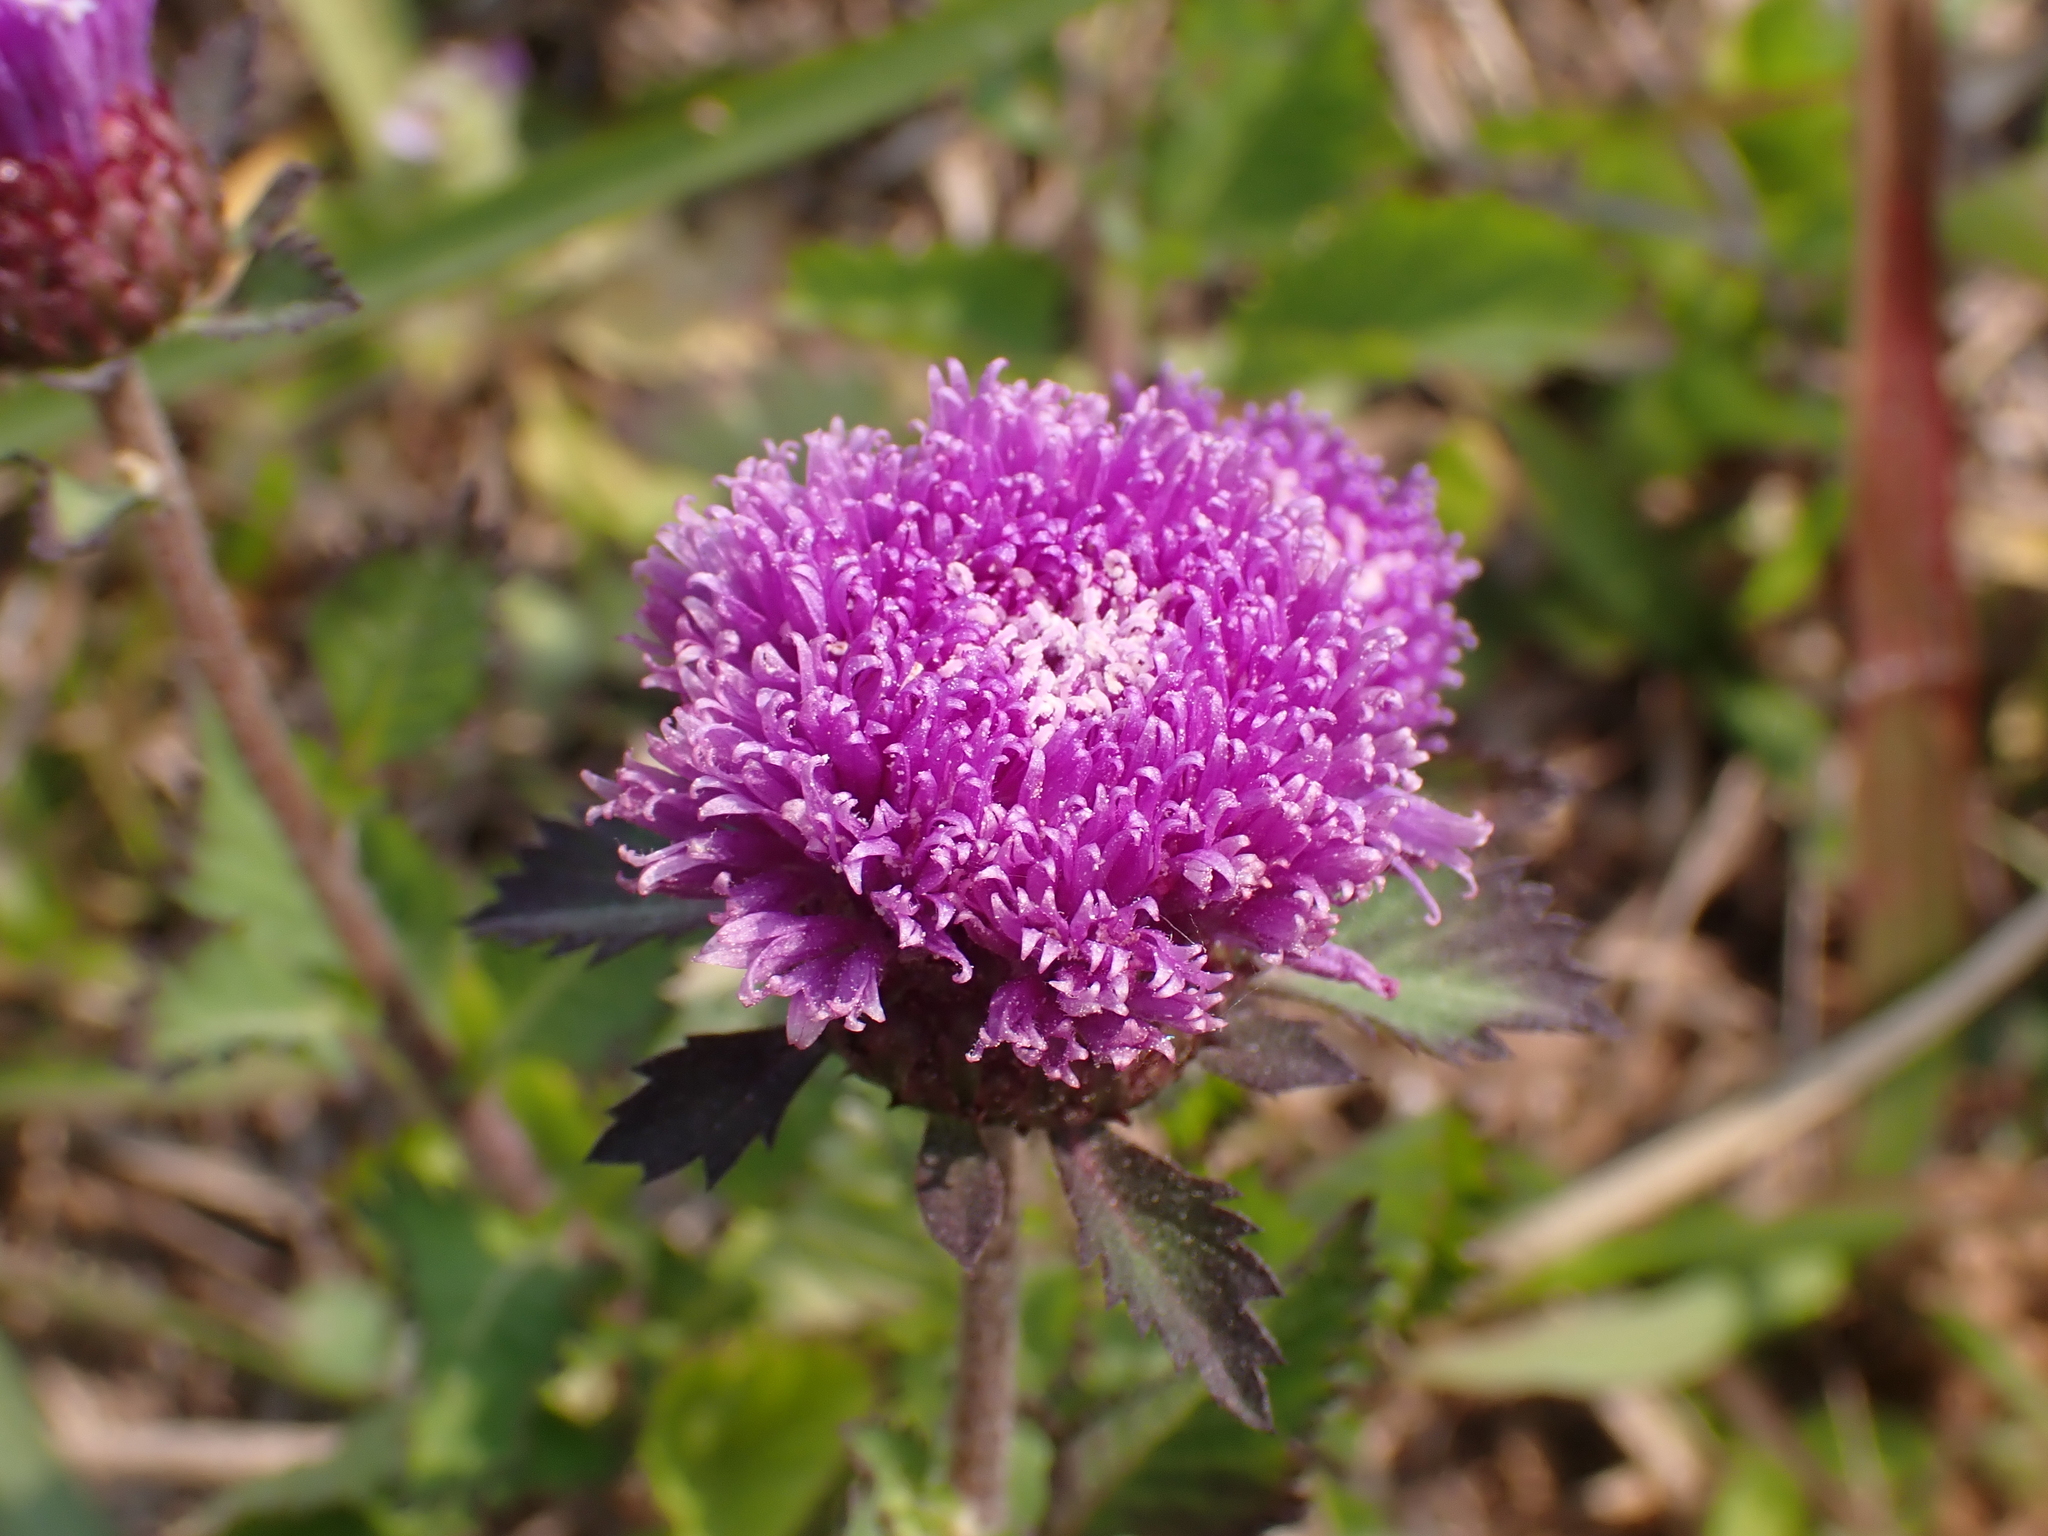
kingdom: Plantae
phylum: Tracheophyta
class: Magnoliopsida
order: Asterales
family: Asteraceae
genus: Centratherum
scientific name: Centratherum punctatum
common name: Larkdaisy
